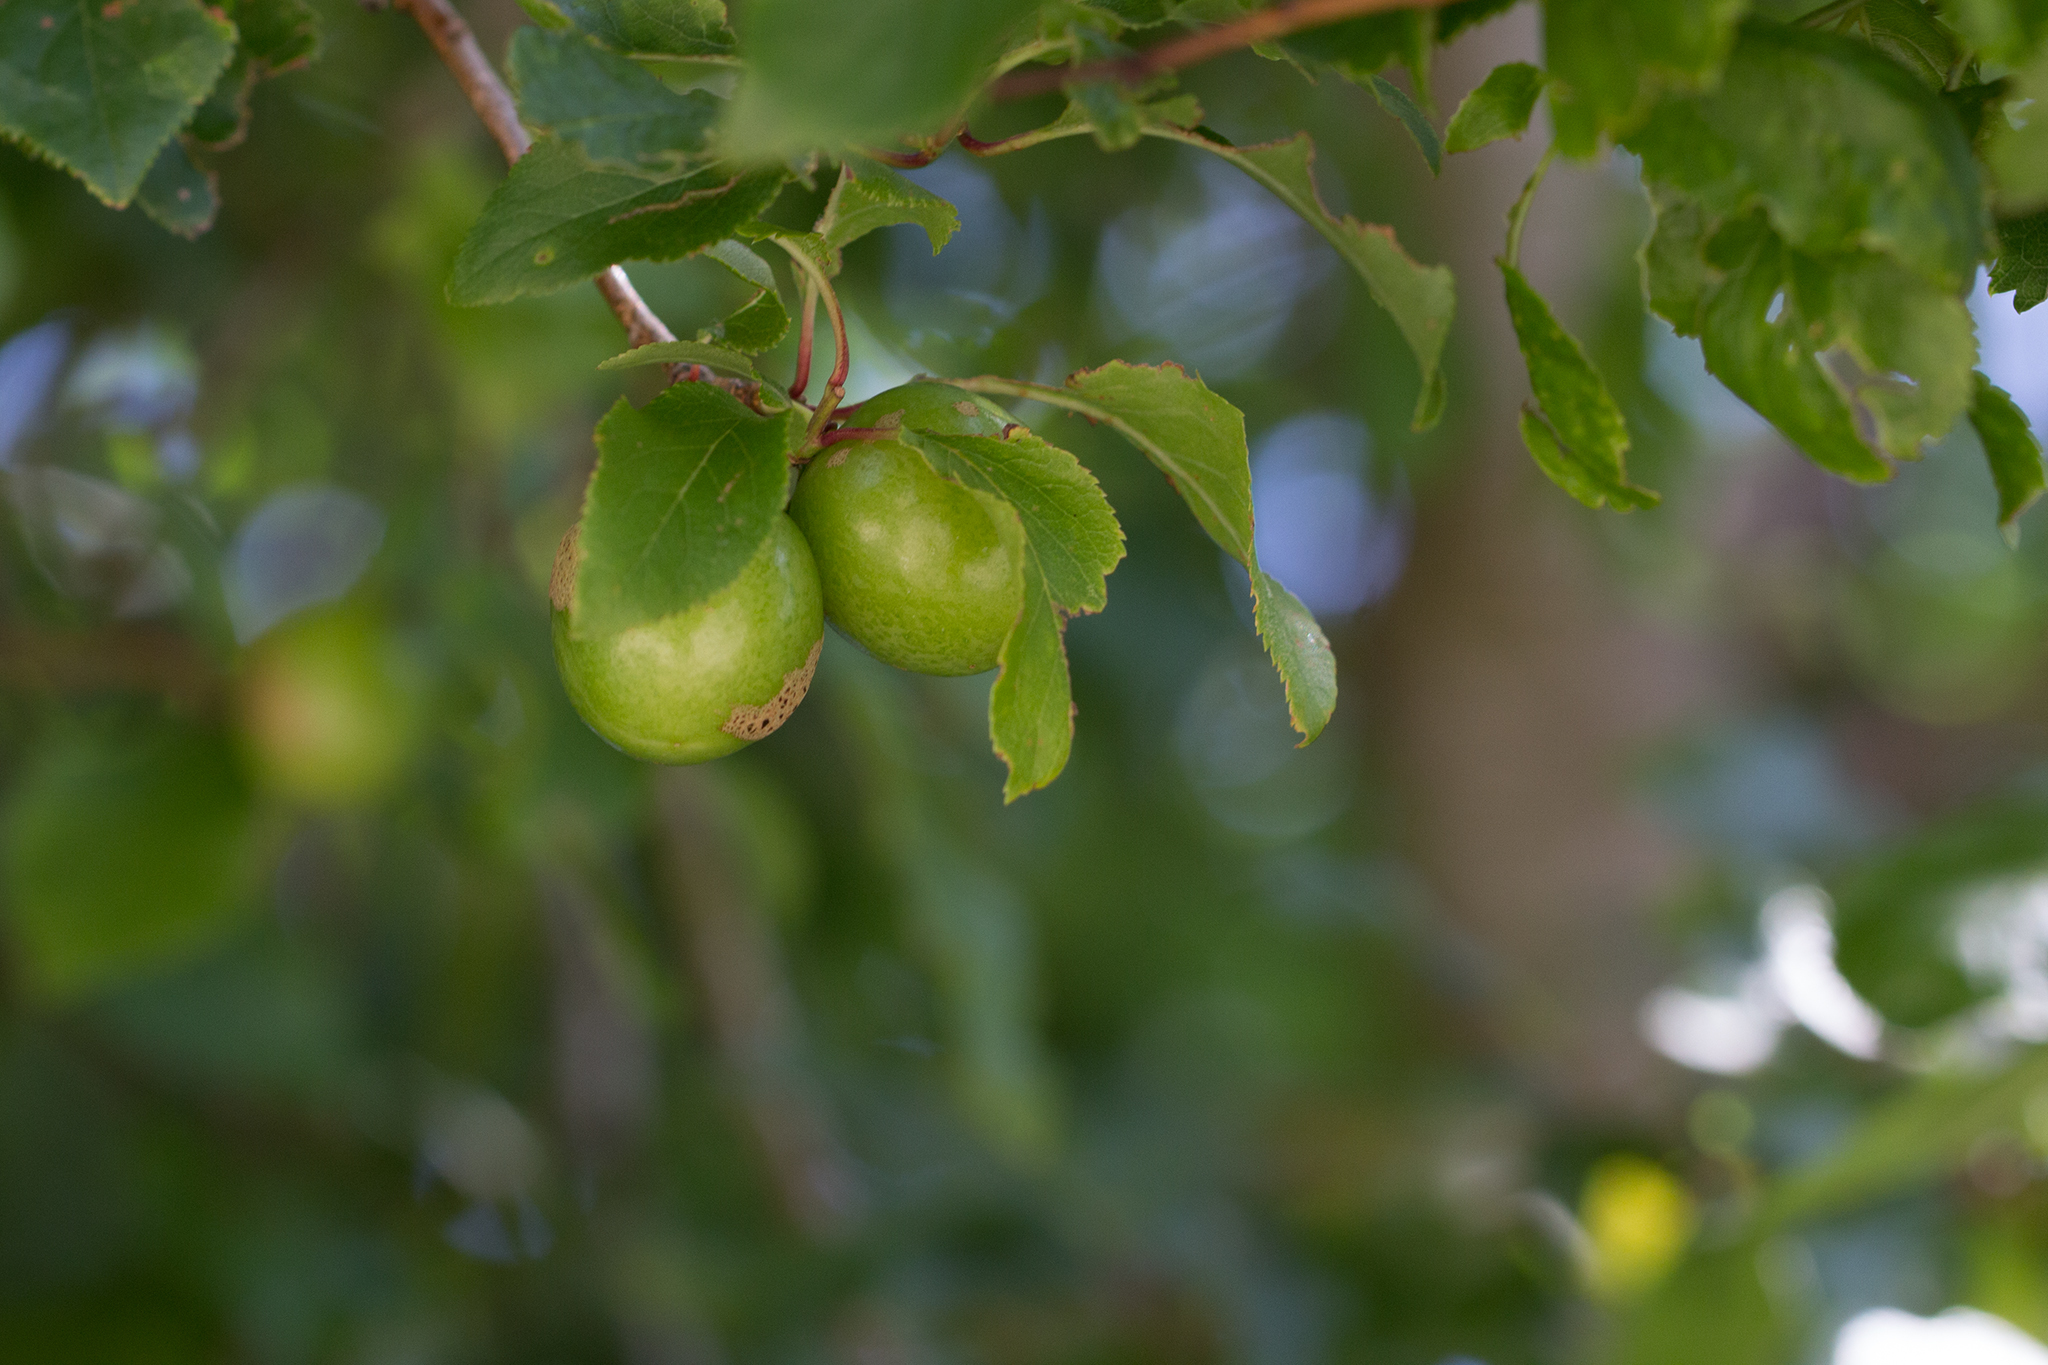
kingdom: Plantae
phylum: Tracheophyta
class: Magnoliopsida
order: Rosales
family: Rosaceae
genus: Prunus
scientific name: Prunus cerasifera
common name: Cherry plum
